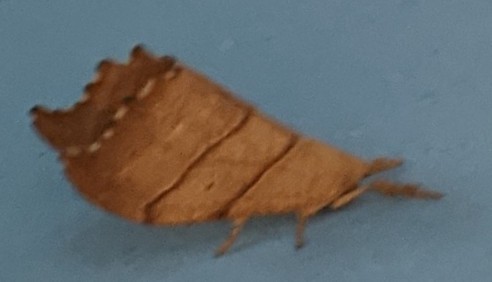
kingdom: Animalia
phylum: Arthropoda
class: Insecta
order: Lepidoptera
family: Drepanidae
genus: Falcaria
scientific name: Falcaria bilineata
